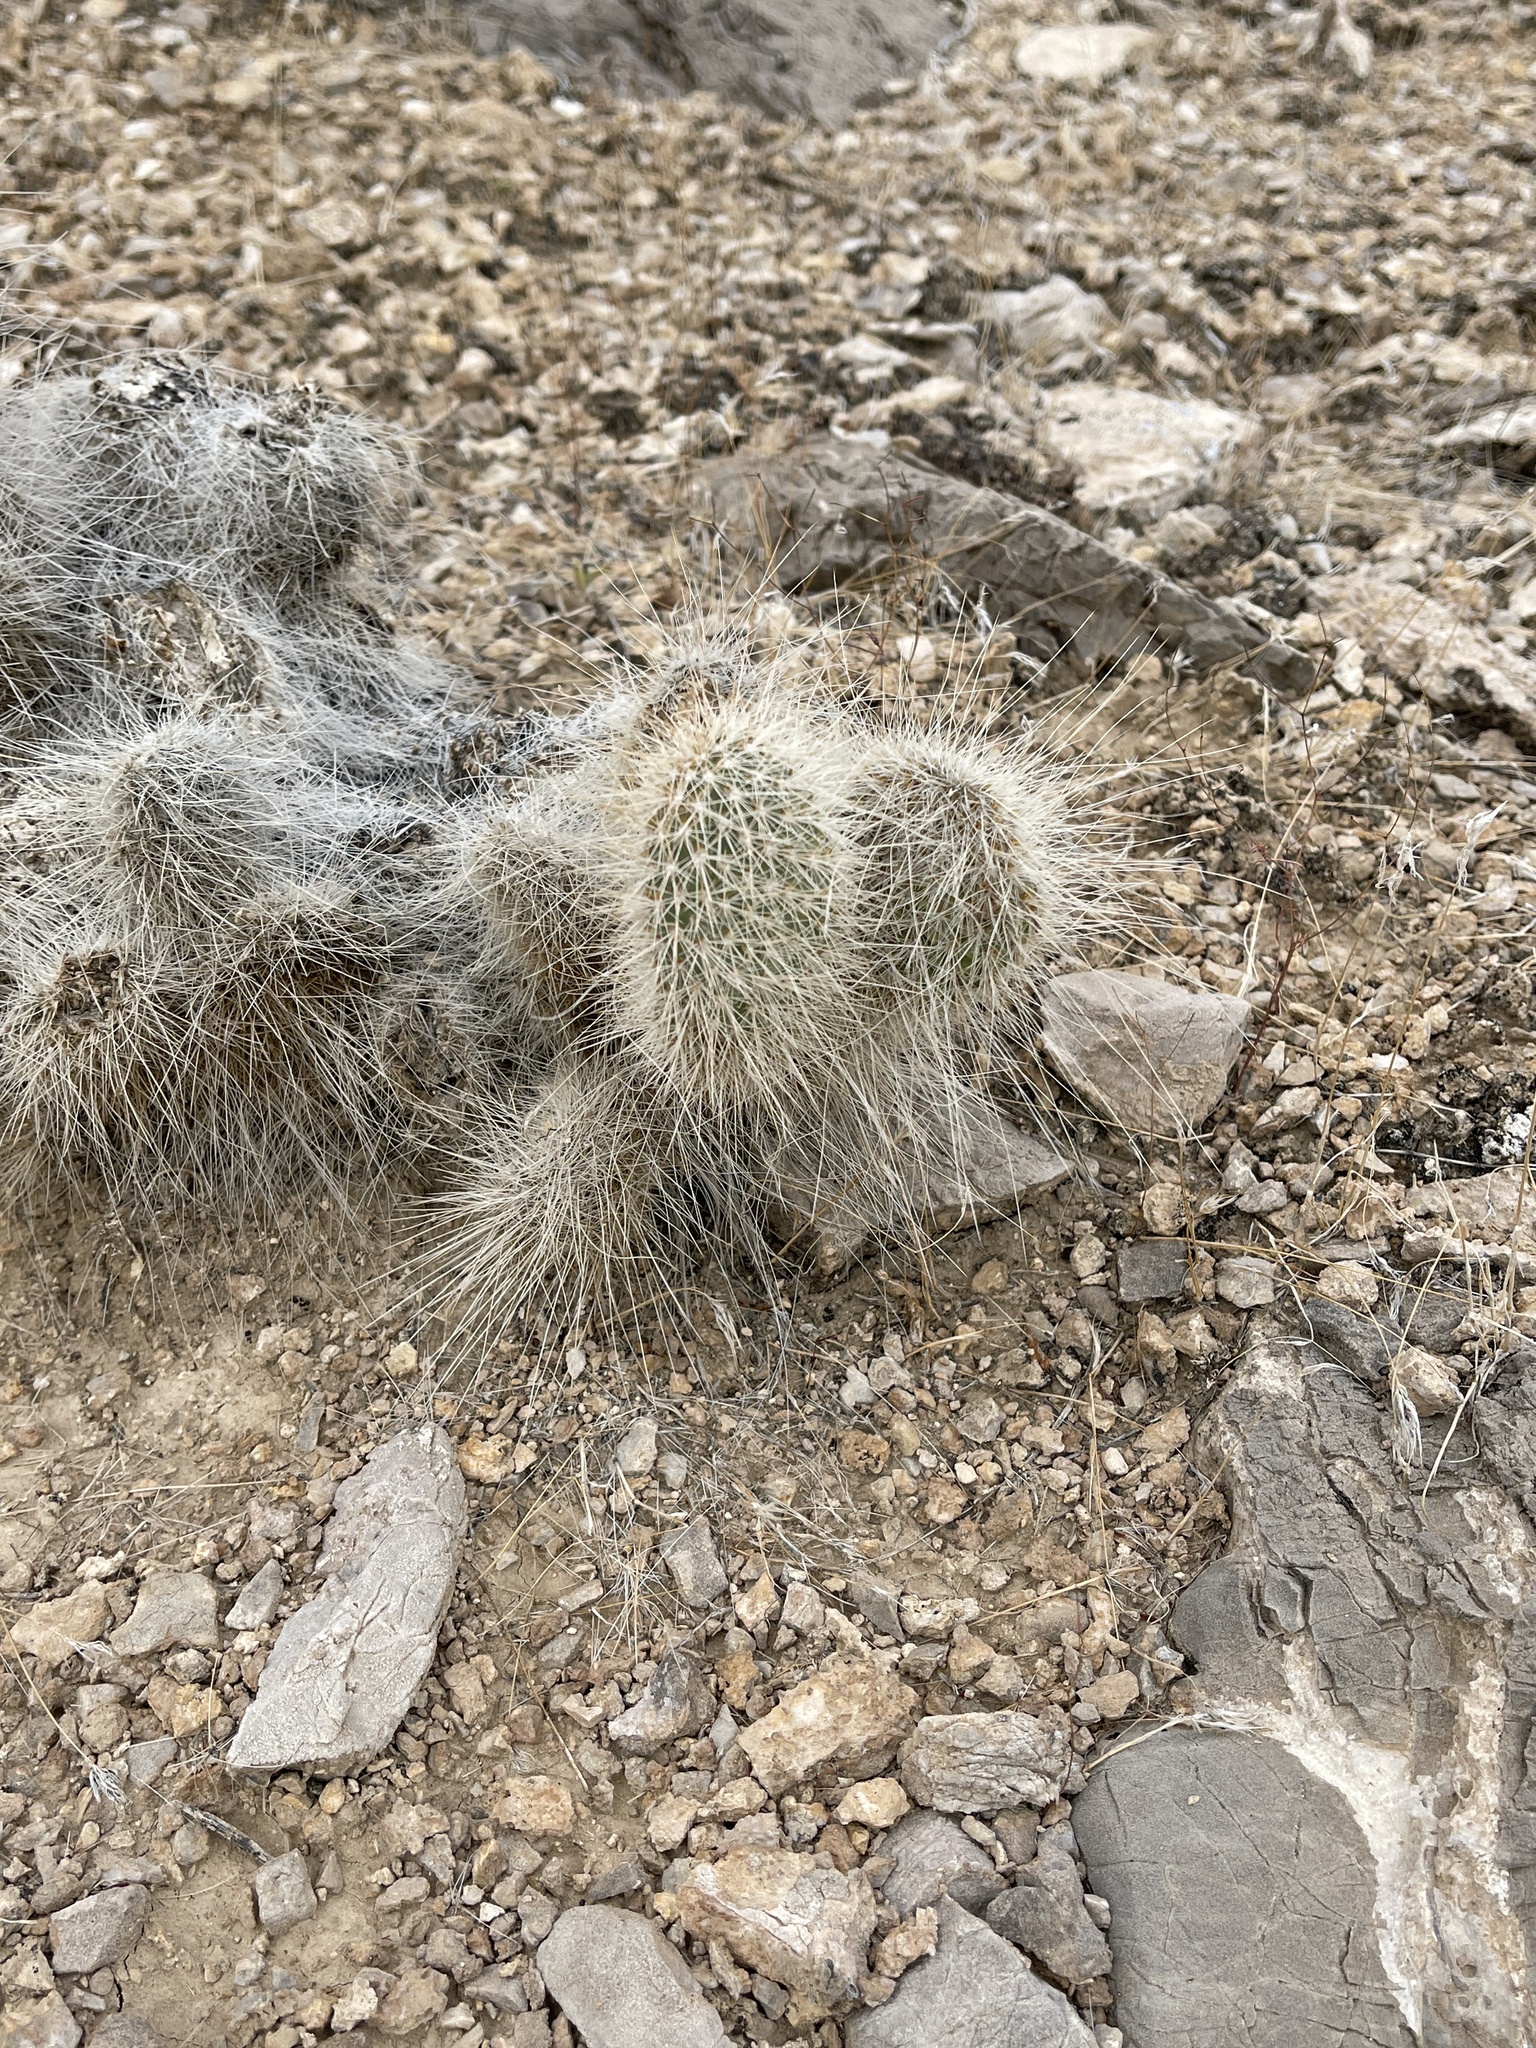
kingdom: Plantae
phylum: Tracheophyta
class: Magnoliopsida
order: Caryophyllales
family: Cactaceae
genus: Opuntia
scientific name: Opuntia polyacantha
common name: Plains prickly-pear
